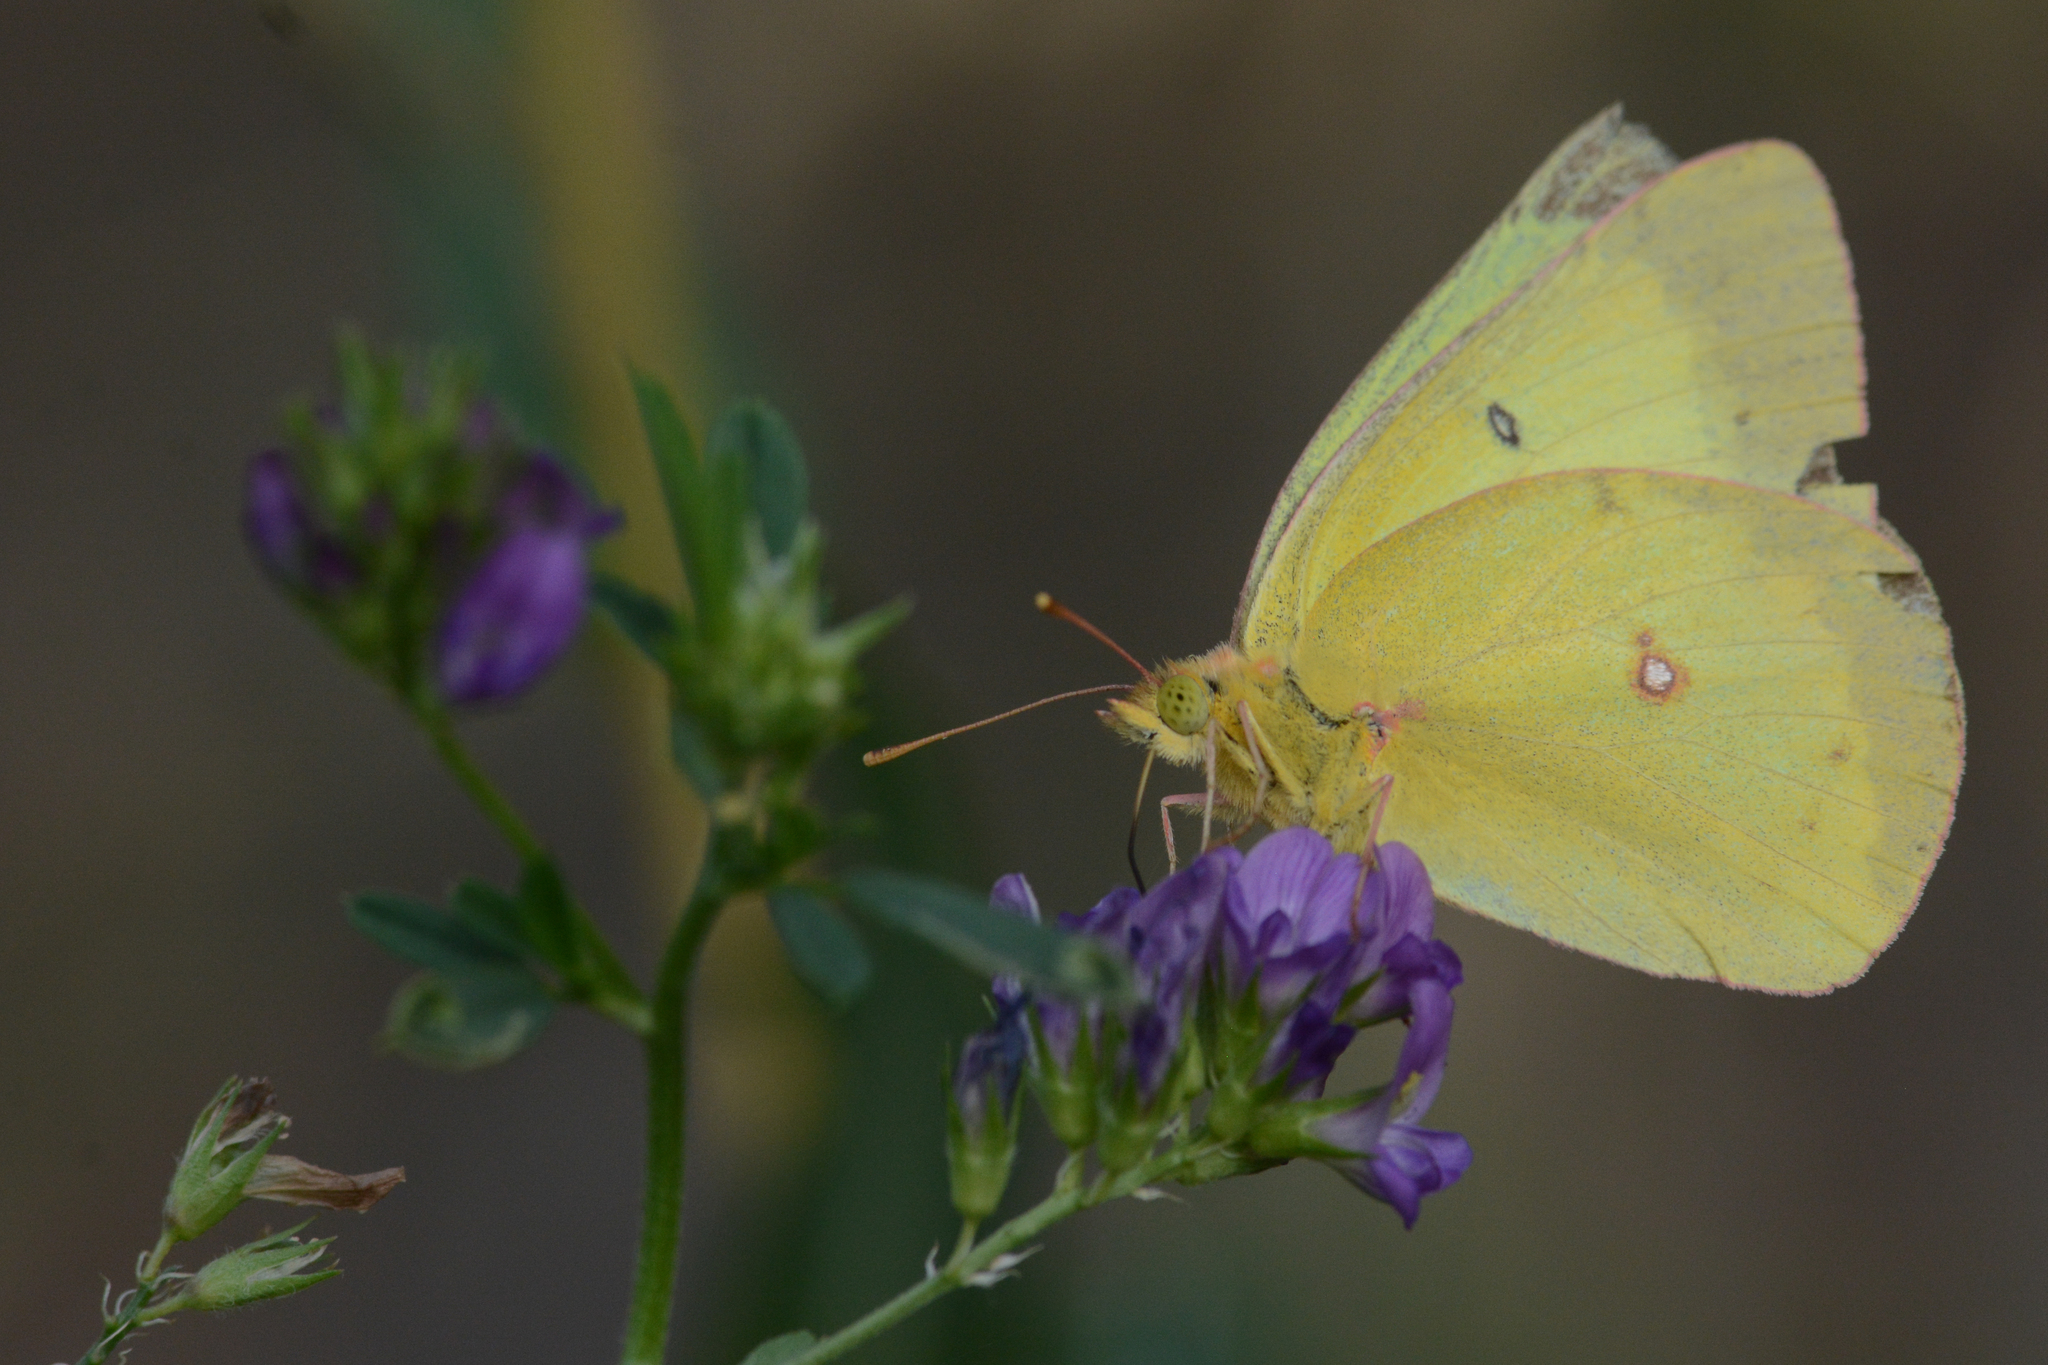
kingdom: Animalia
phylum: Arthropoda
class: Insecta
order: Lepidoptera
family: Pieridae
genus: Colias
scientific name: Colias philodice
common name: Clouded sulphur
